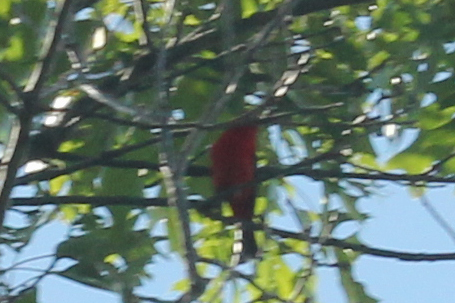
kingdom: Animalia
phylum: Chordata
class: Aves
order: Passeriformes
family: Cardinalidae
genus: Piranga
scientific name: Piranga olivacea
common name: Scarlet tanager
